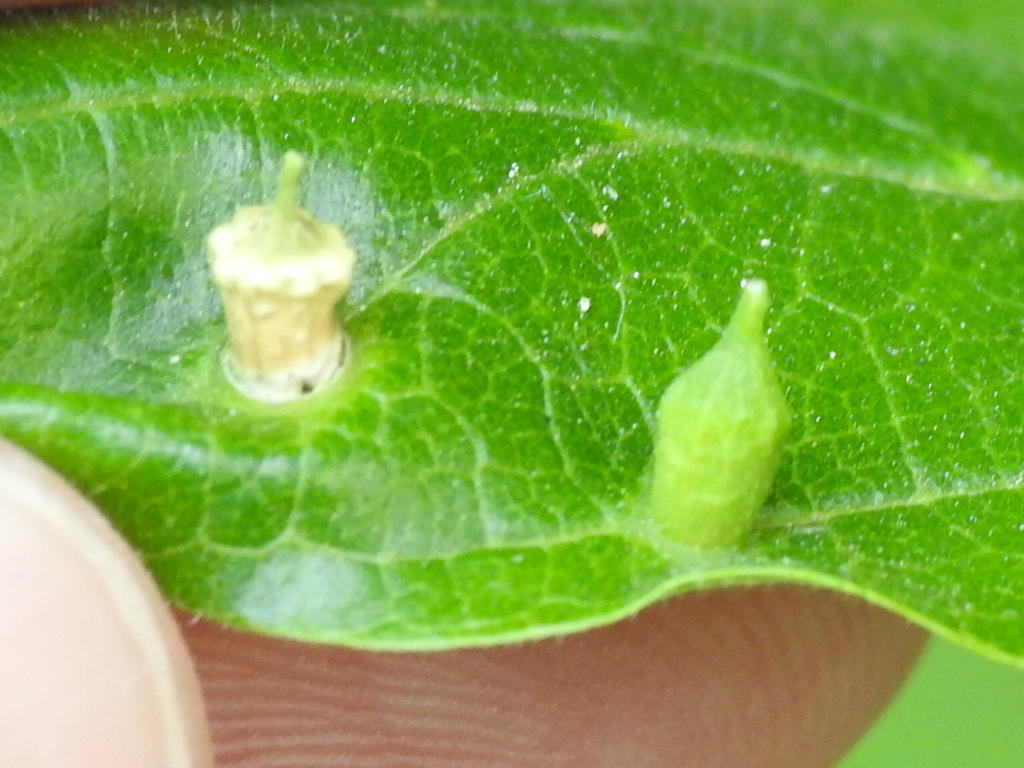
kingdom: Animalia
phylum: Arthropoda
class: Insecta
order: Diptera
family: Cecidomyiidae
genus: Celticecis
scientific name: Celticecis ramicola
